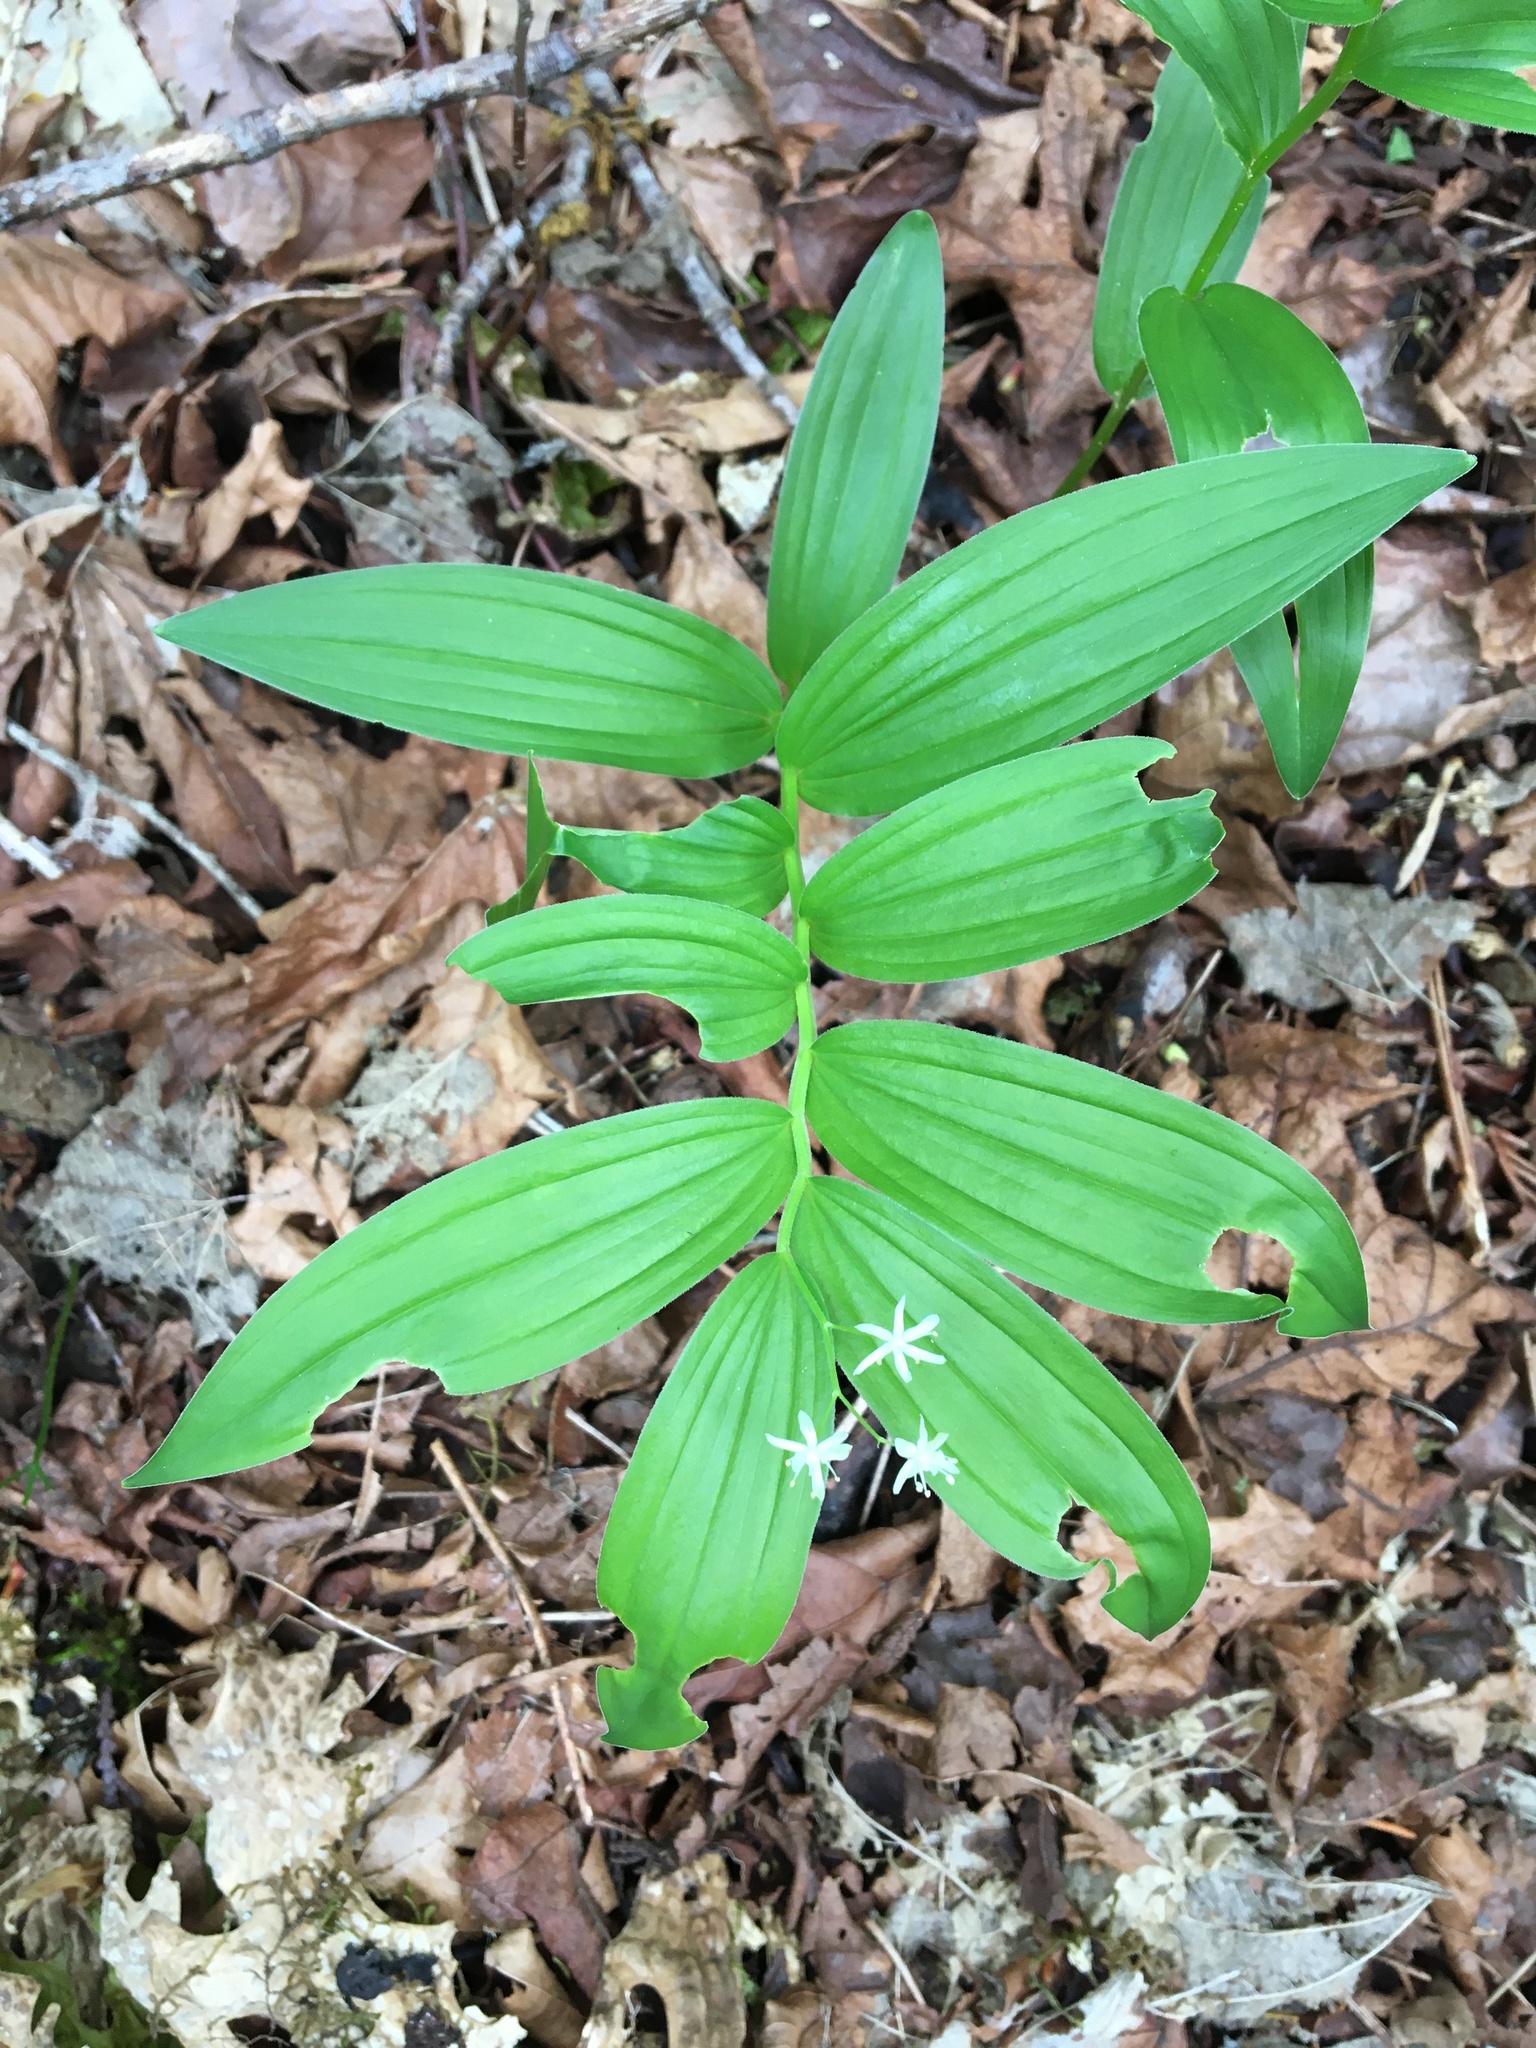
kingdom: Plantae
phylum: Tracheophyta
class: Liliopsida
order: Asparagales
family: Asparagaceae
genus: Maianthemum
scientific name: Maianthemum stellatum
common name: Little false solomon's seal
